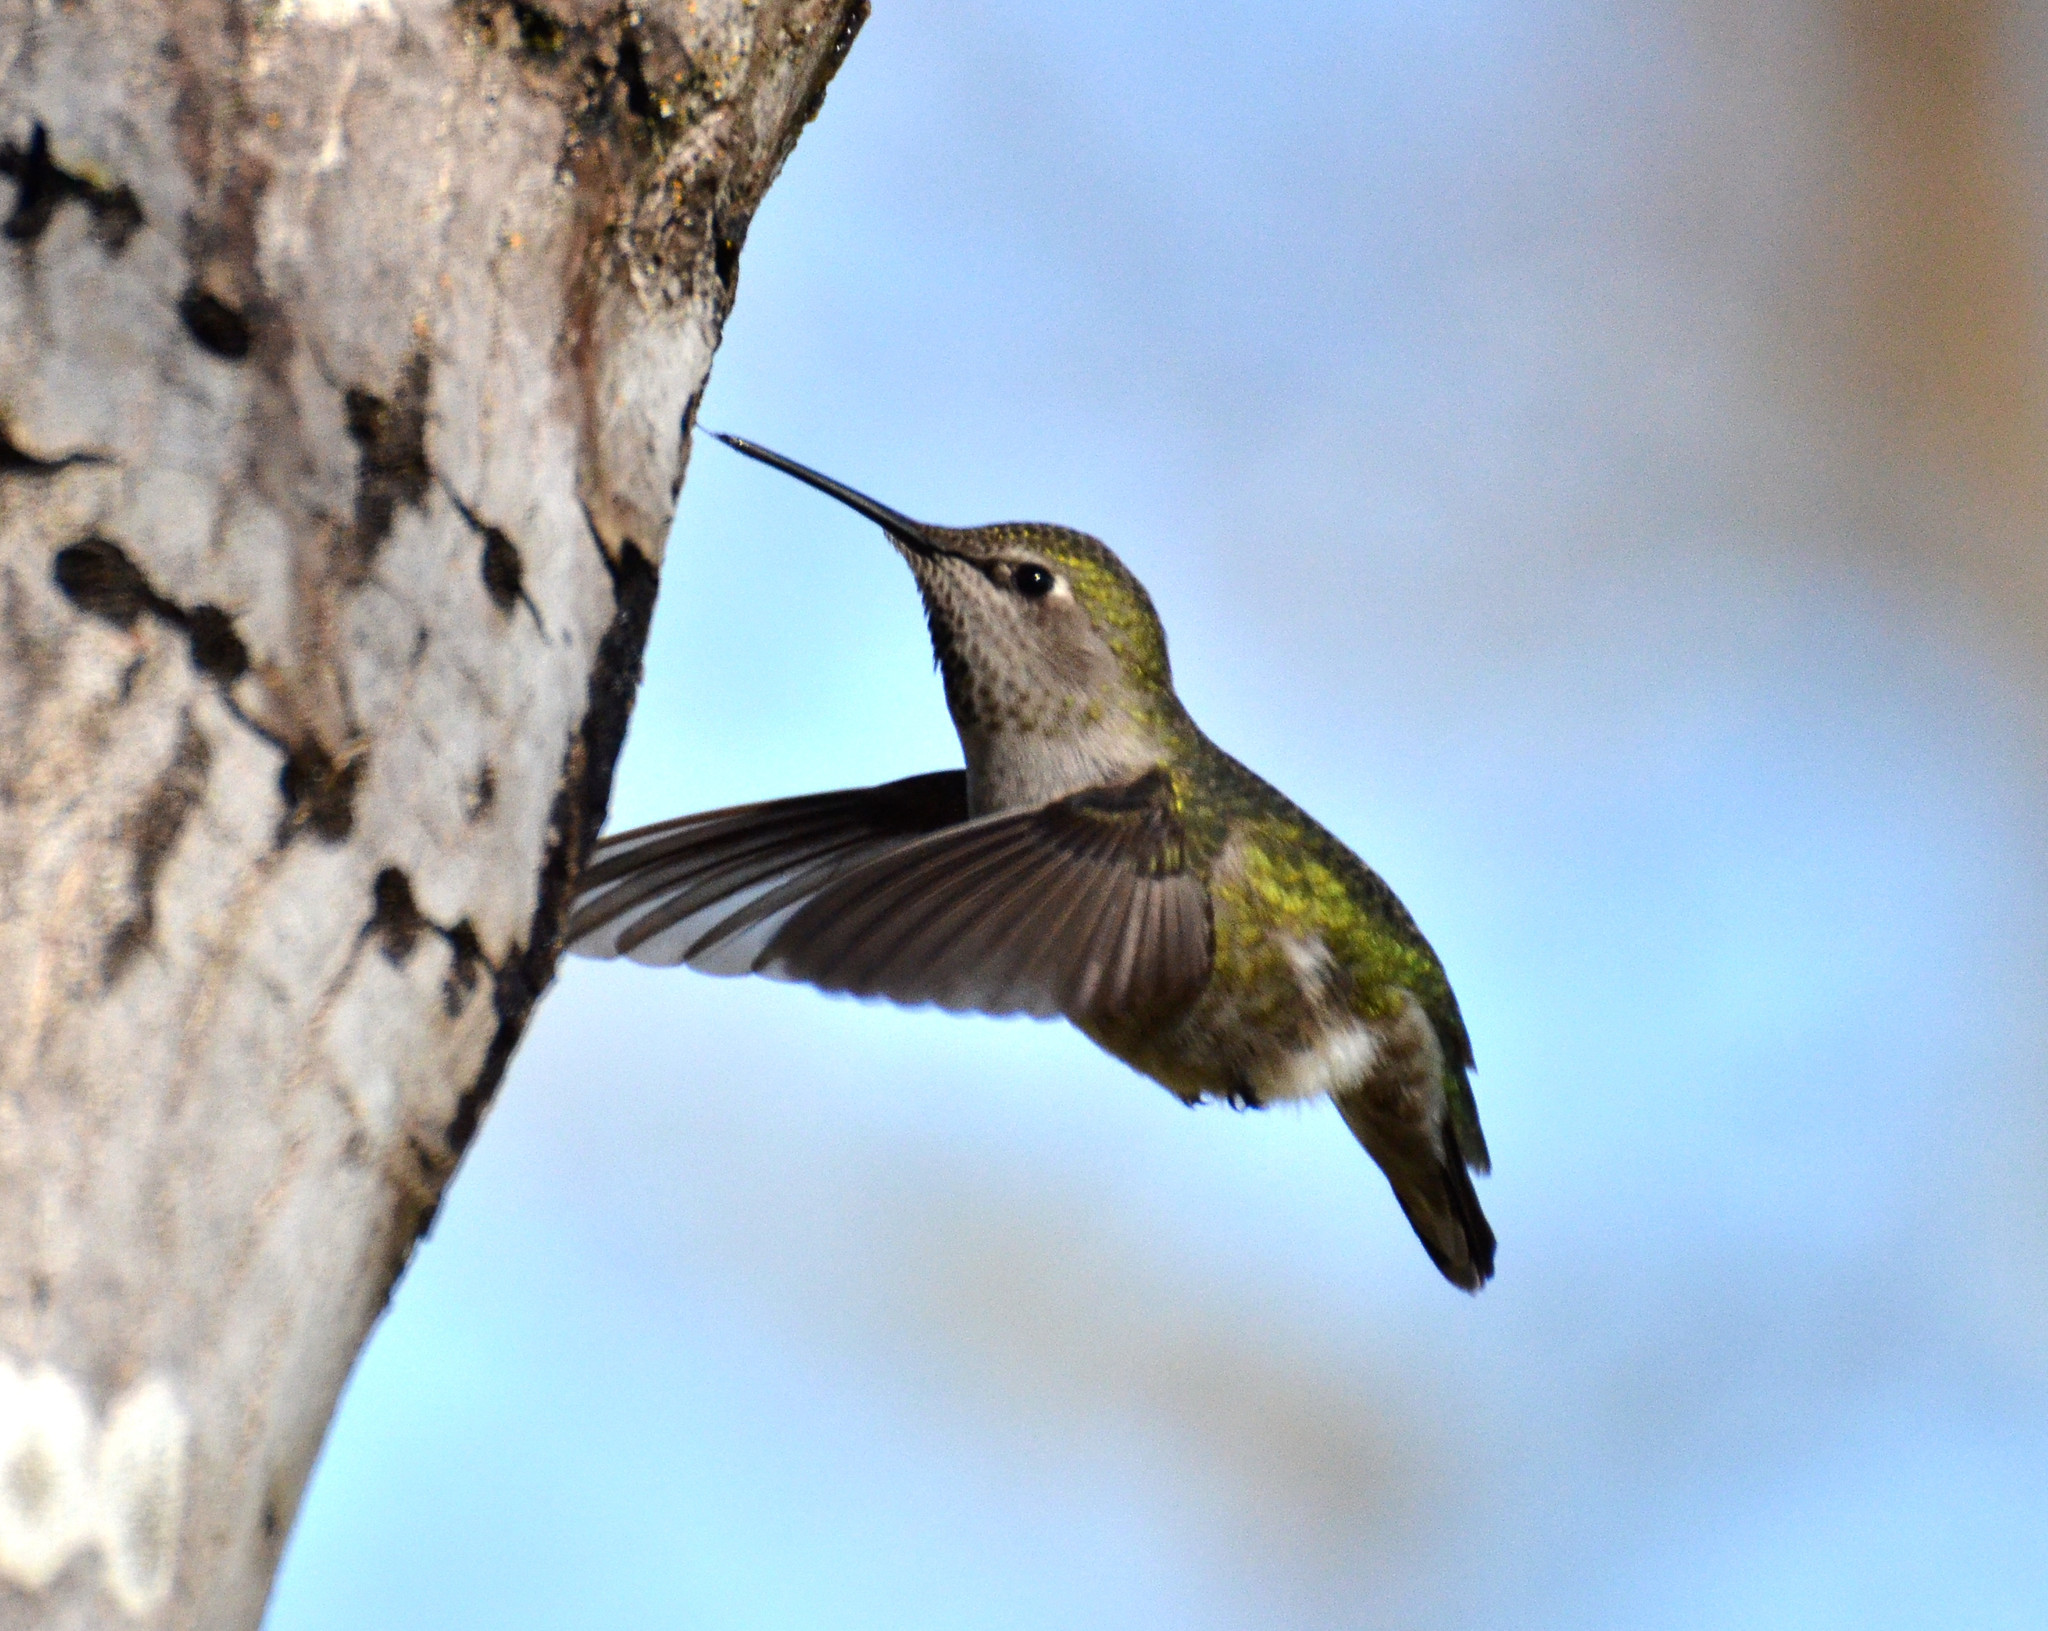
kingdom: Animalia
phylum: Chordata
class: Aves
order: Apodiformes
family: Trochilidae
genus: Calypte
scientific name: Calypte anna
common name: Anna's hummingbird
